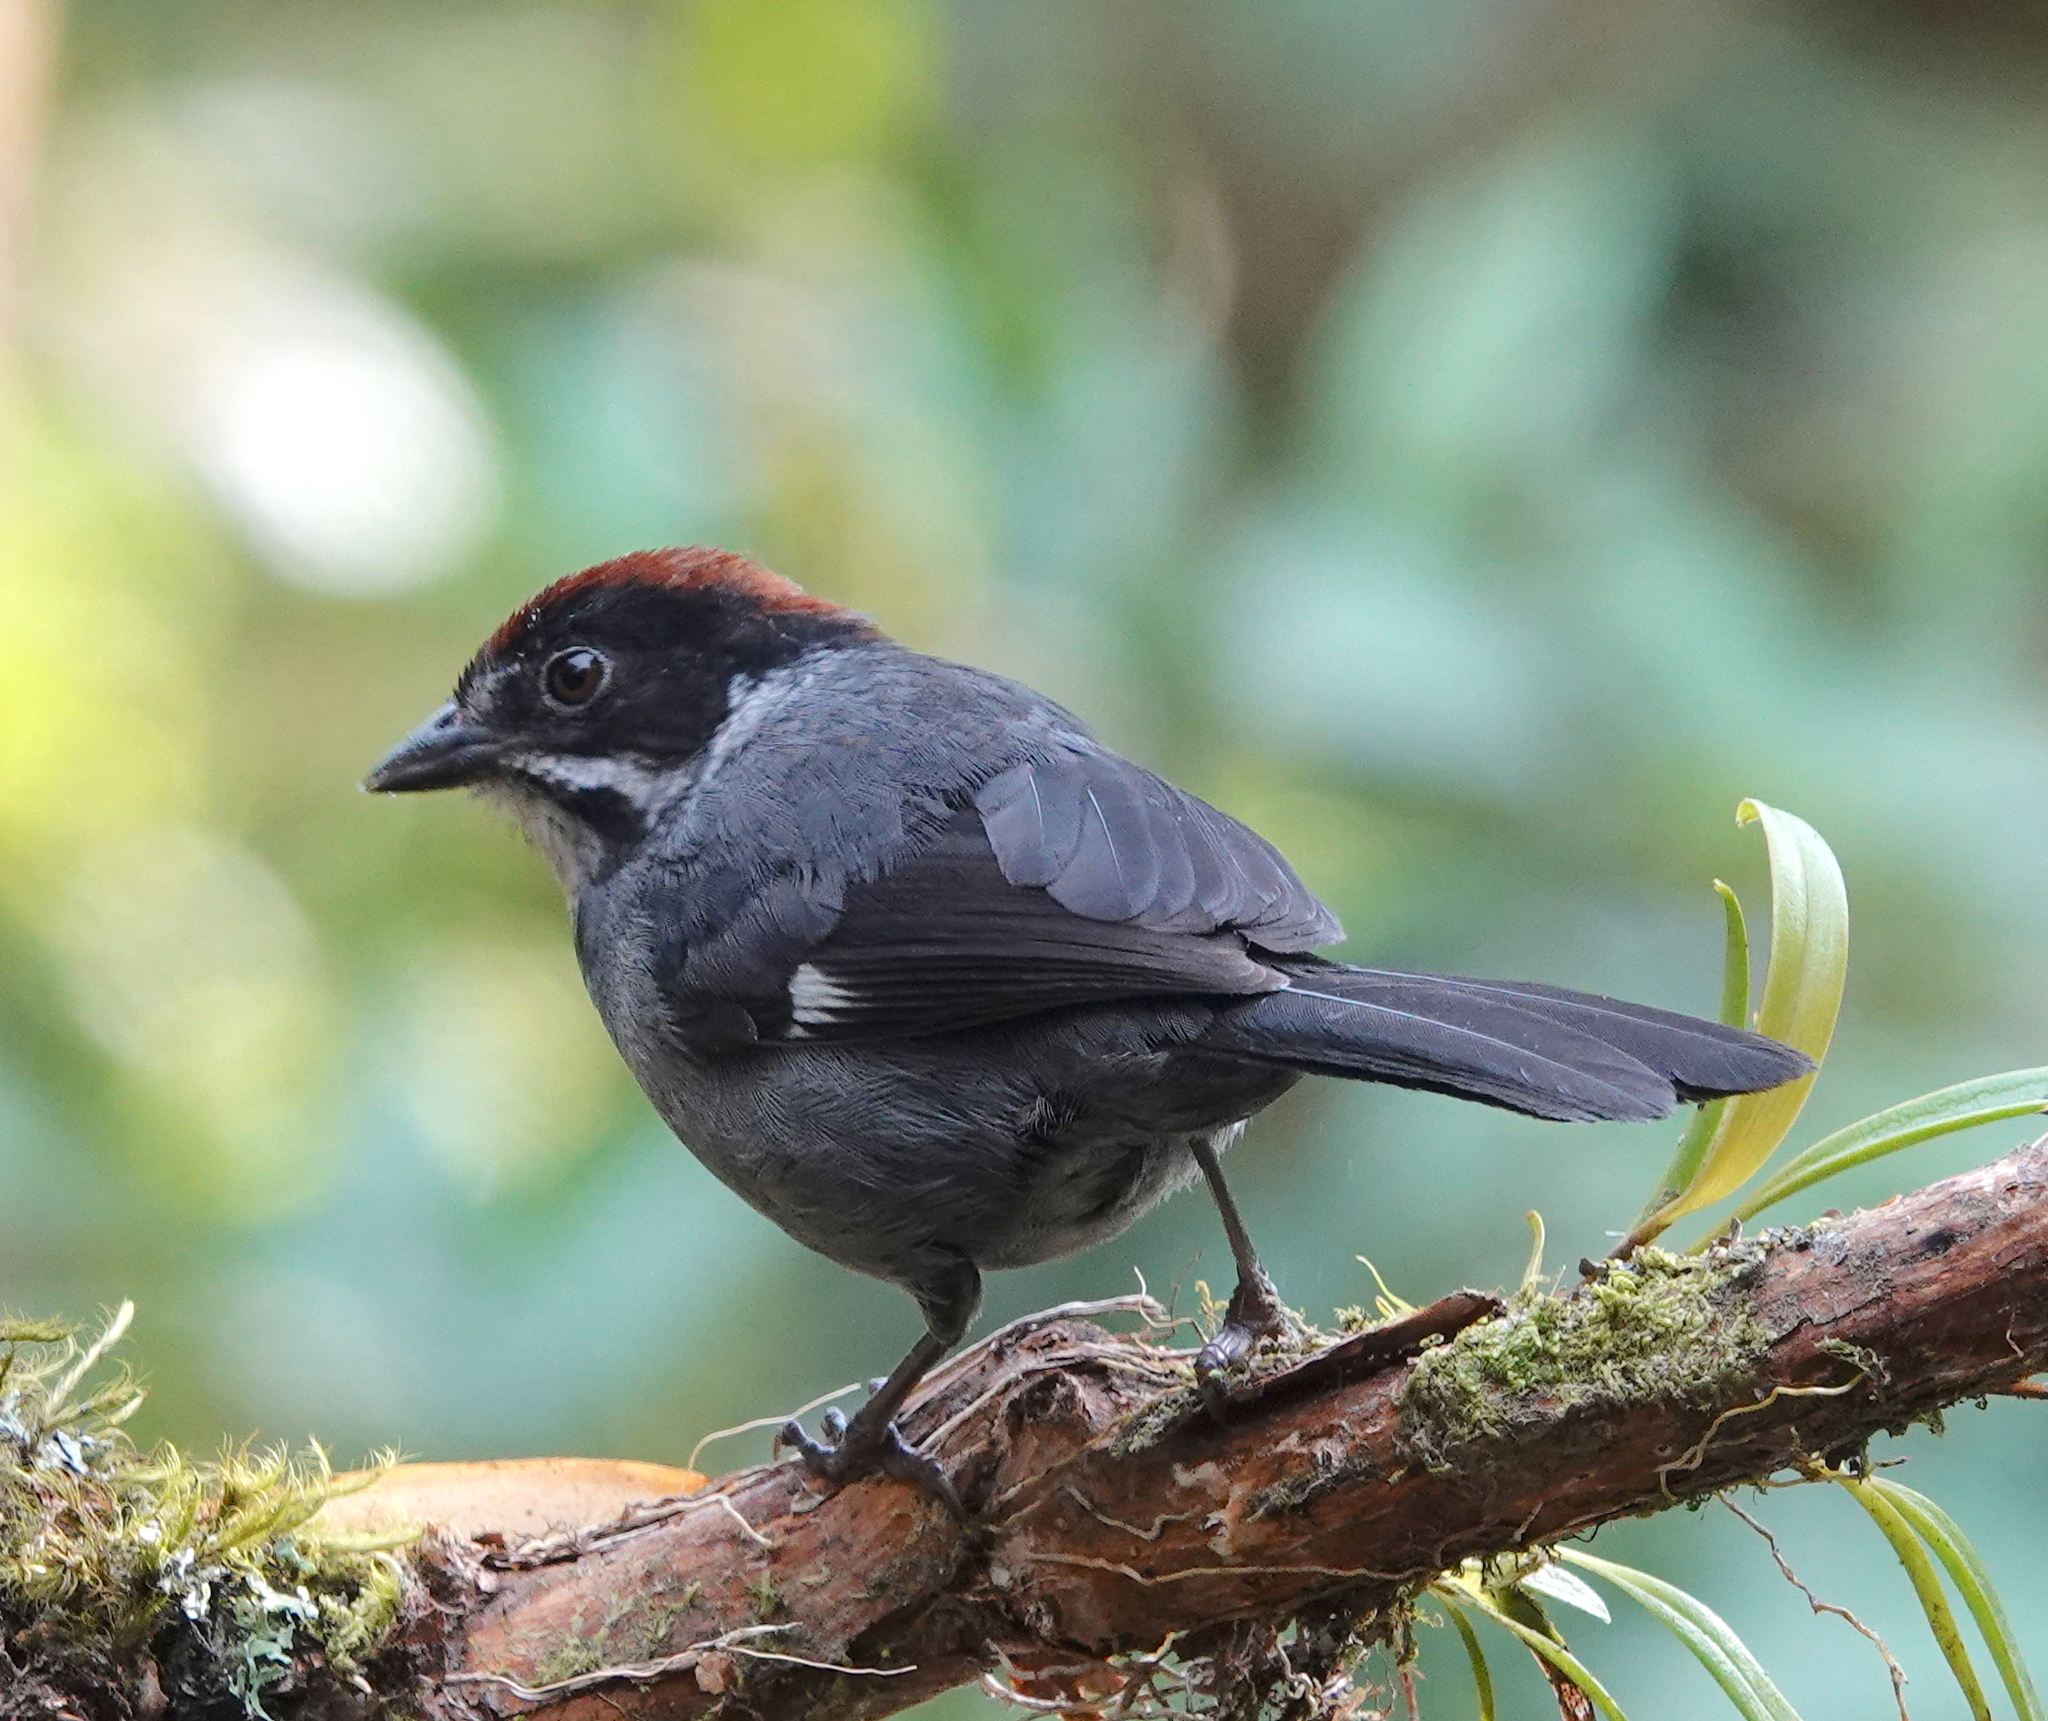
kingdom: Animalia
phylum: Chordata
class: Aves
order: Passeriformes
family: Passerellidae
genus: Atlapetes
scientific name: Atlapetes schistaceus
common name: Slaty brushfinch
